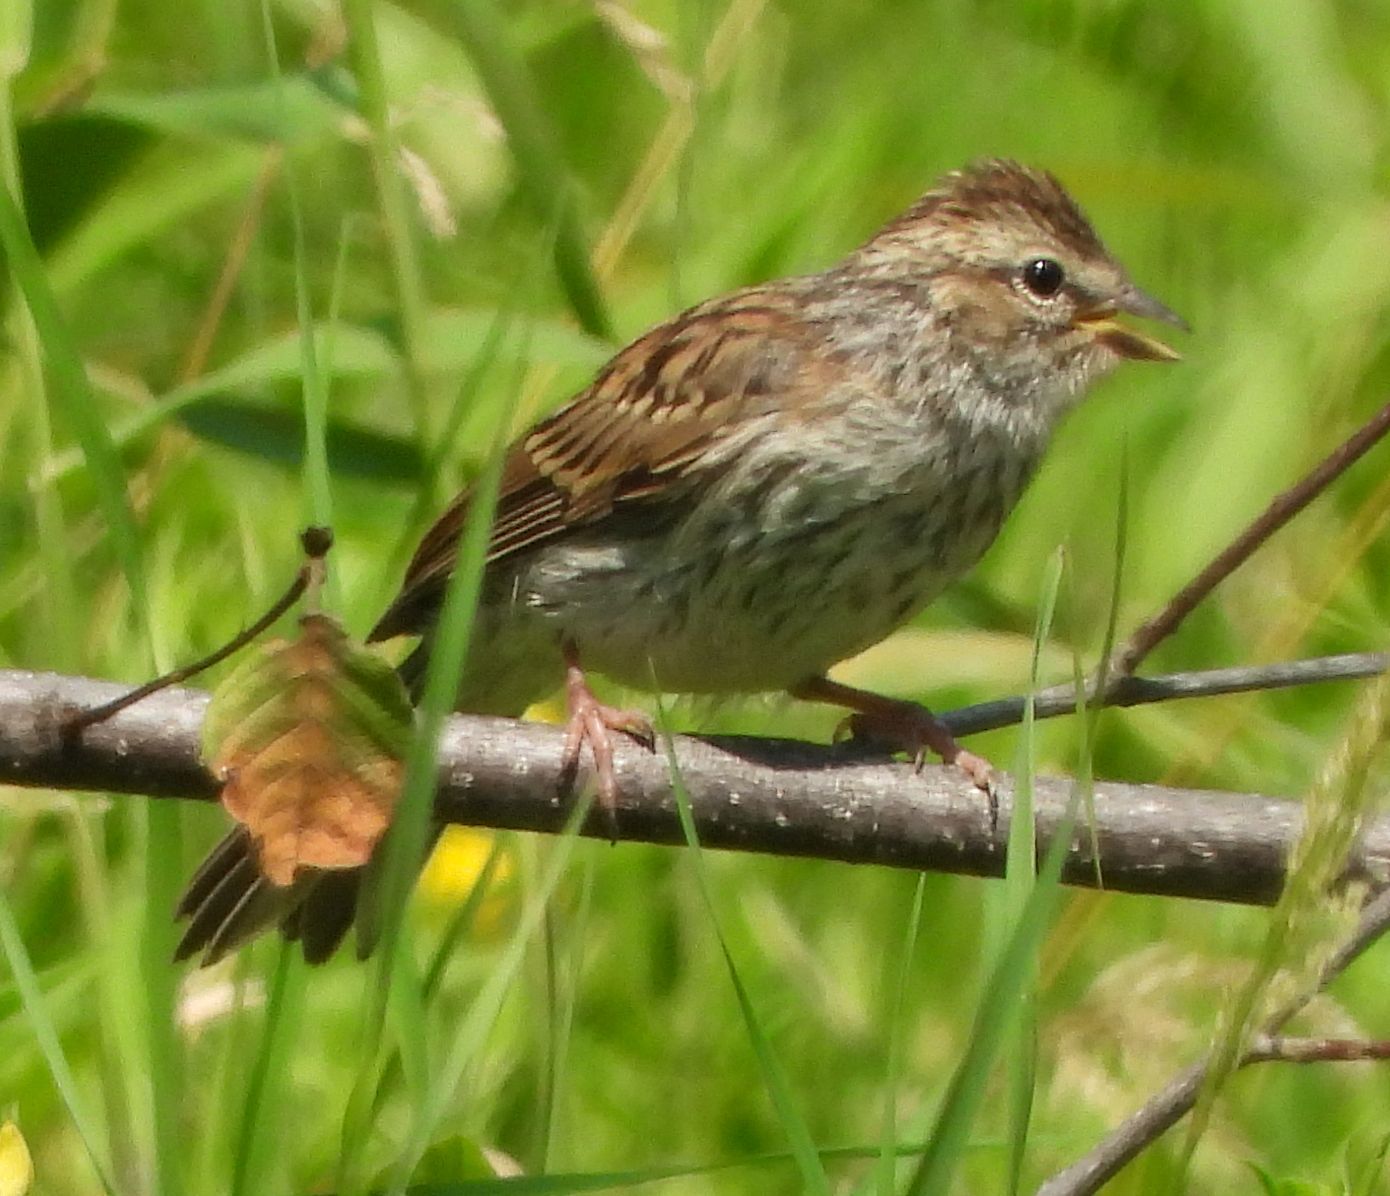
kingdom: Animalia
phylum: Chordata
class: Aves
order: Passeriformes
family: Passerellidae
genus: Spizella
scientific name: Spizella passerina
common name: Chipping sparrow
